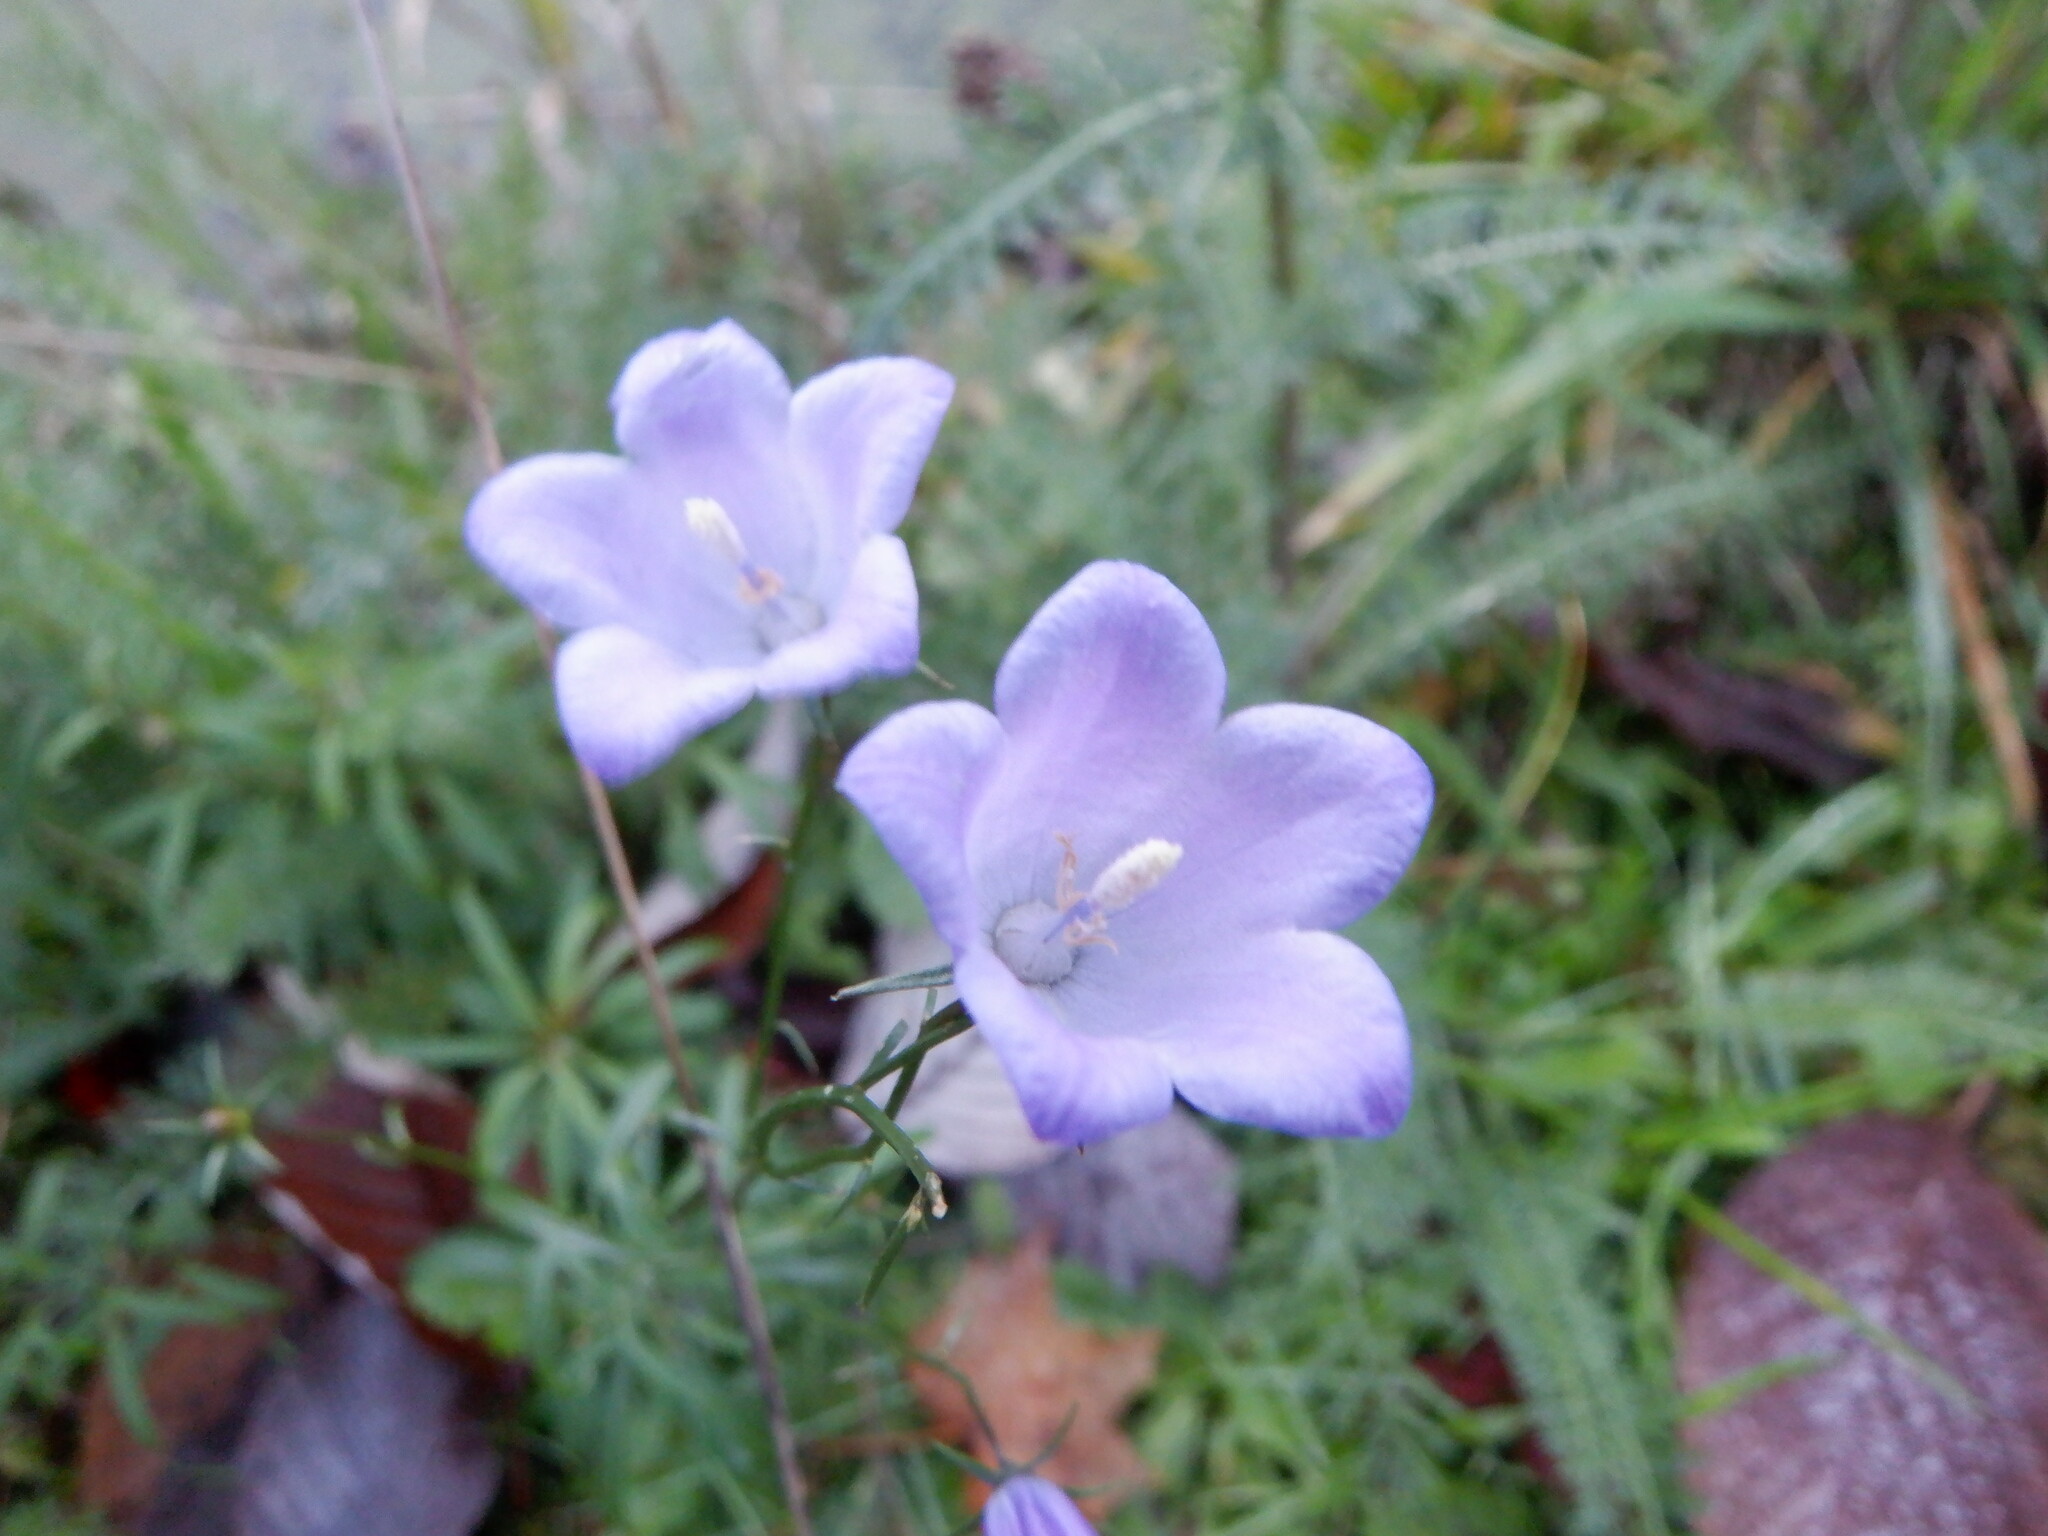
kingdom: Plantae
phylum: Tracheophyta
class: Magnoliopsida
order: Asterales
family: Campanulaceae
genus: Campanula
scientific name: Campanula rotundifolia
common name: Harebell
